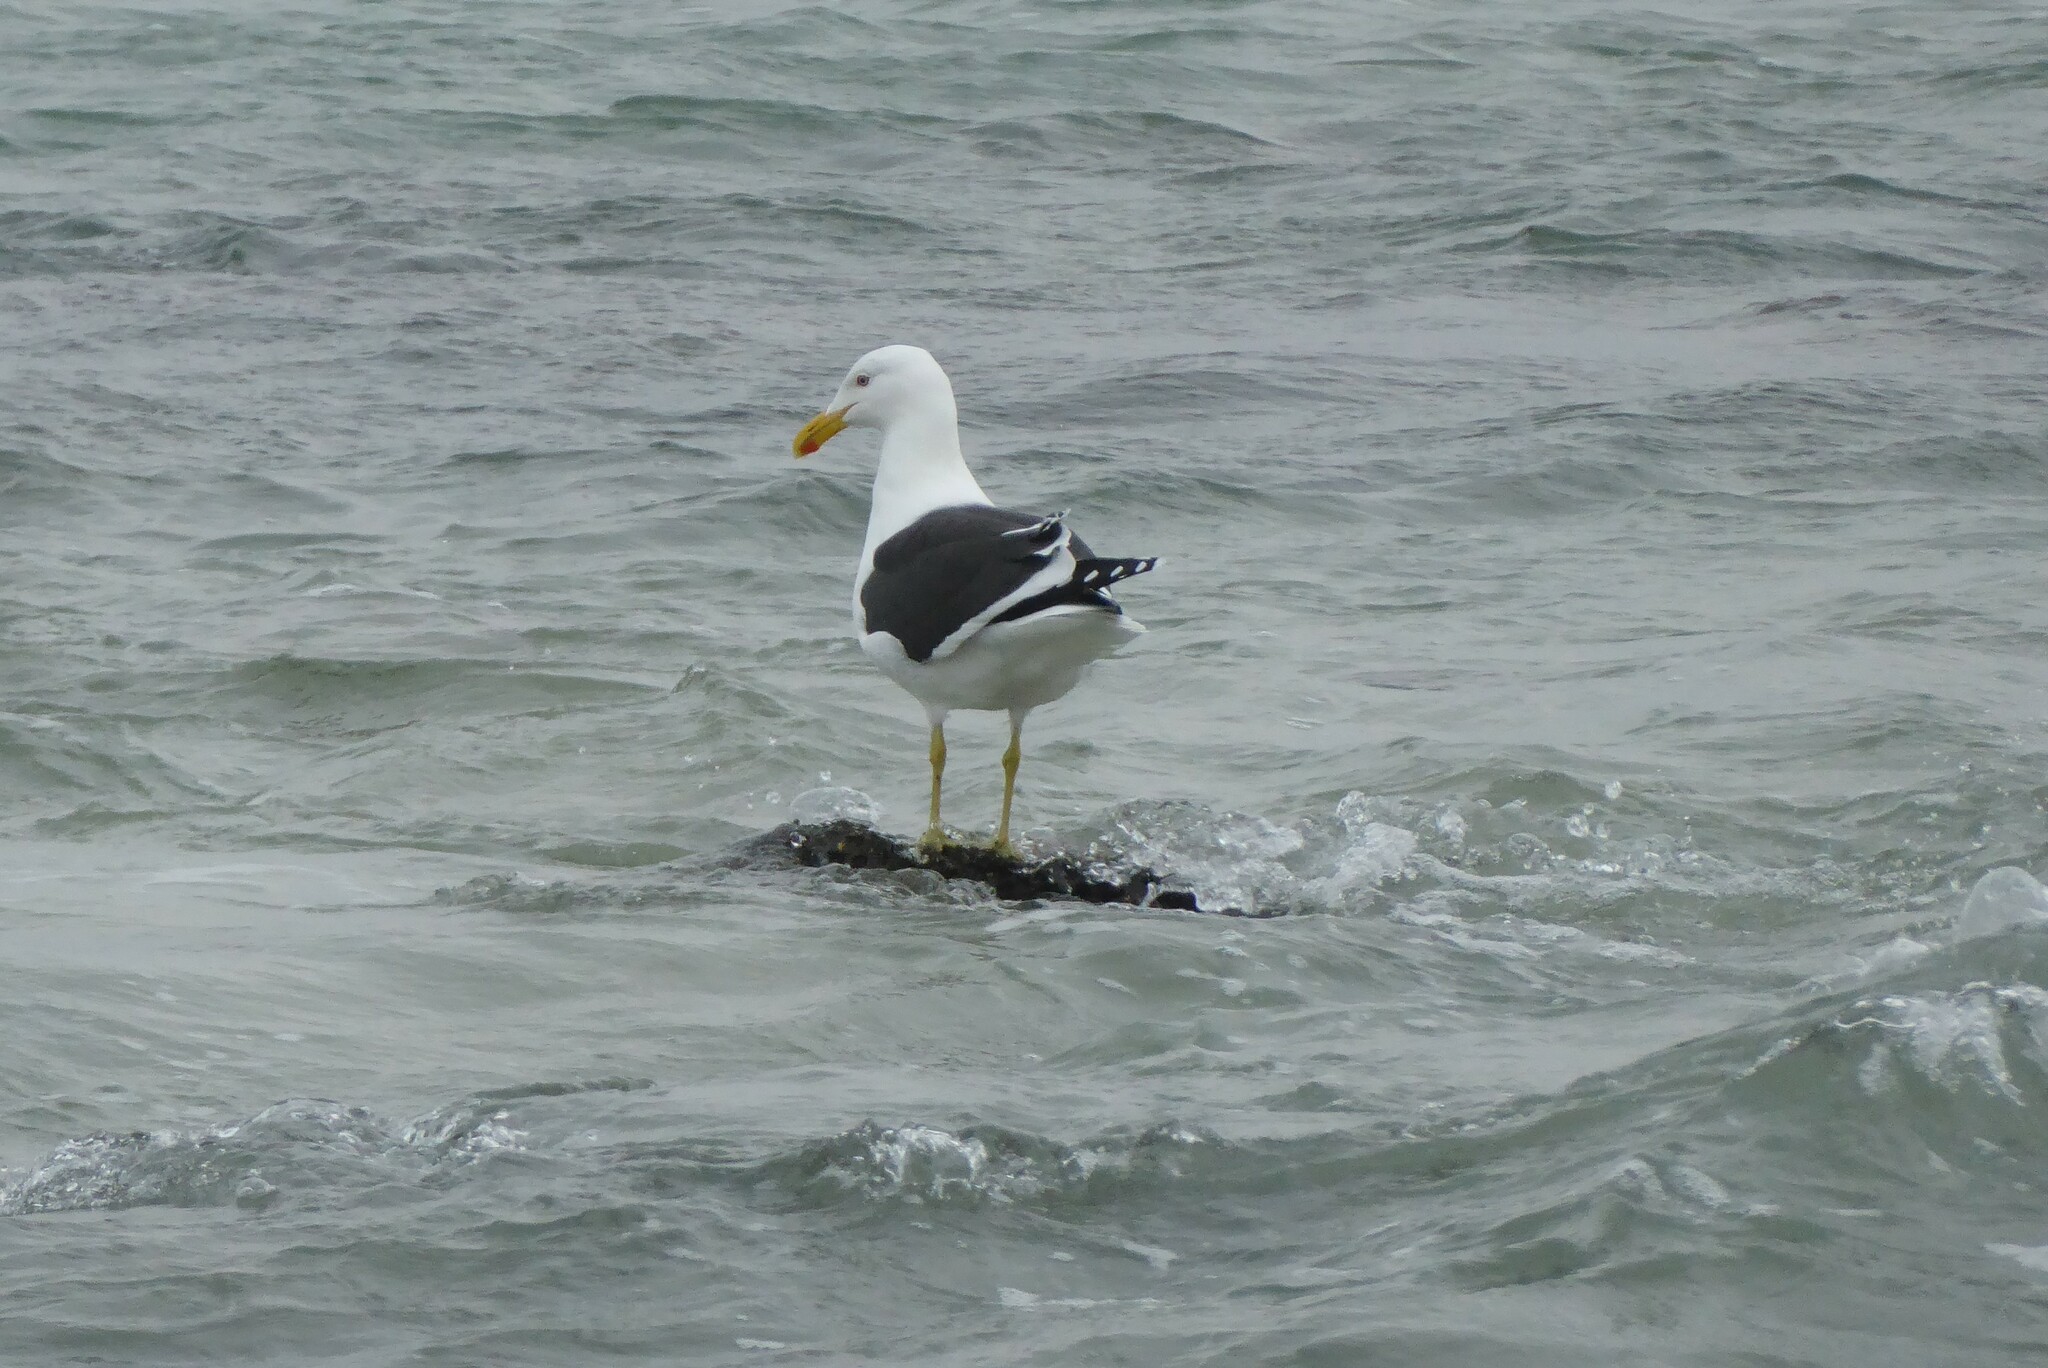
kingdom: Animalia
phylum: Chordata
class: Aves
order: Charadriiformes
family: Laridae
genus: Larus
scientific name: Larus dominicanus
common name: Kelp gull
